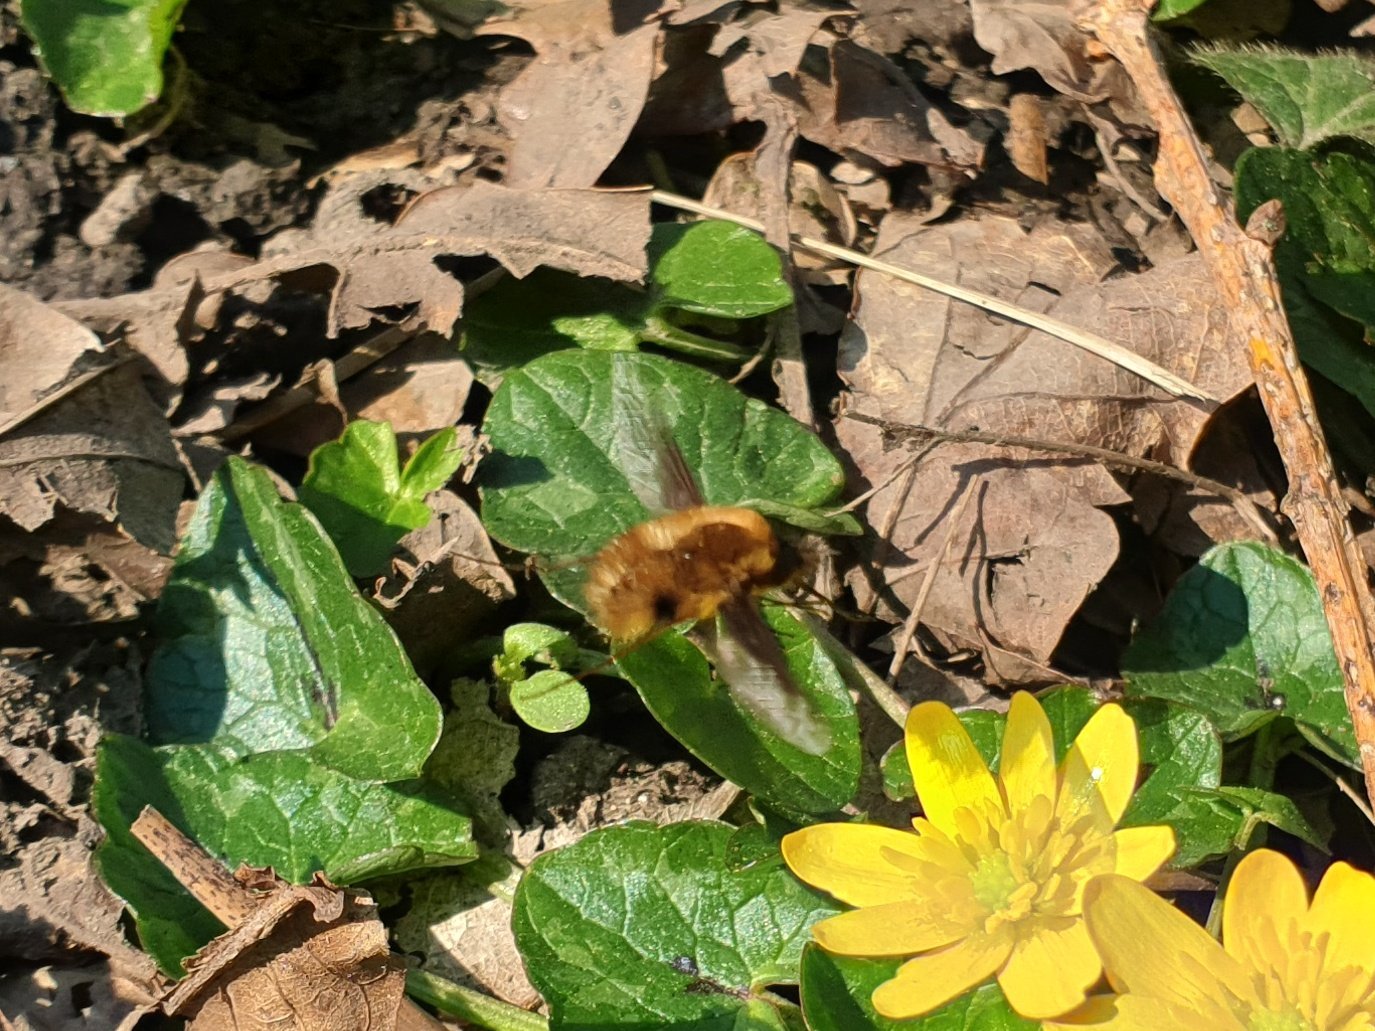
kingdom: Animalia
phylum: Arthropoda
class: Insecta
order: Diptera
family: Bombyliidae
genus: Bombylius
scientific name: Bombylius major
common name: Bee fly
